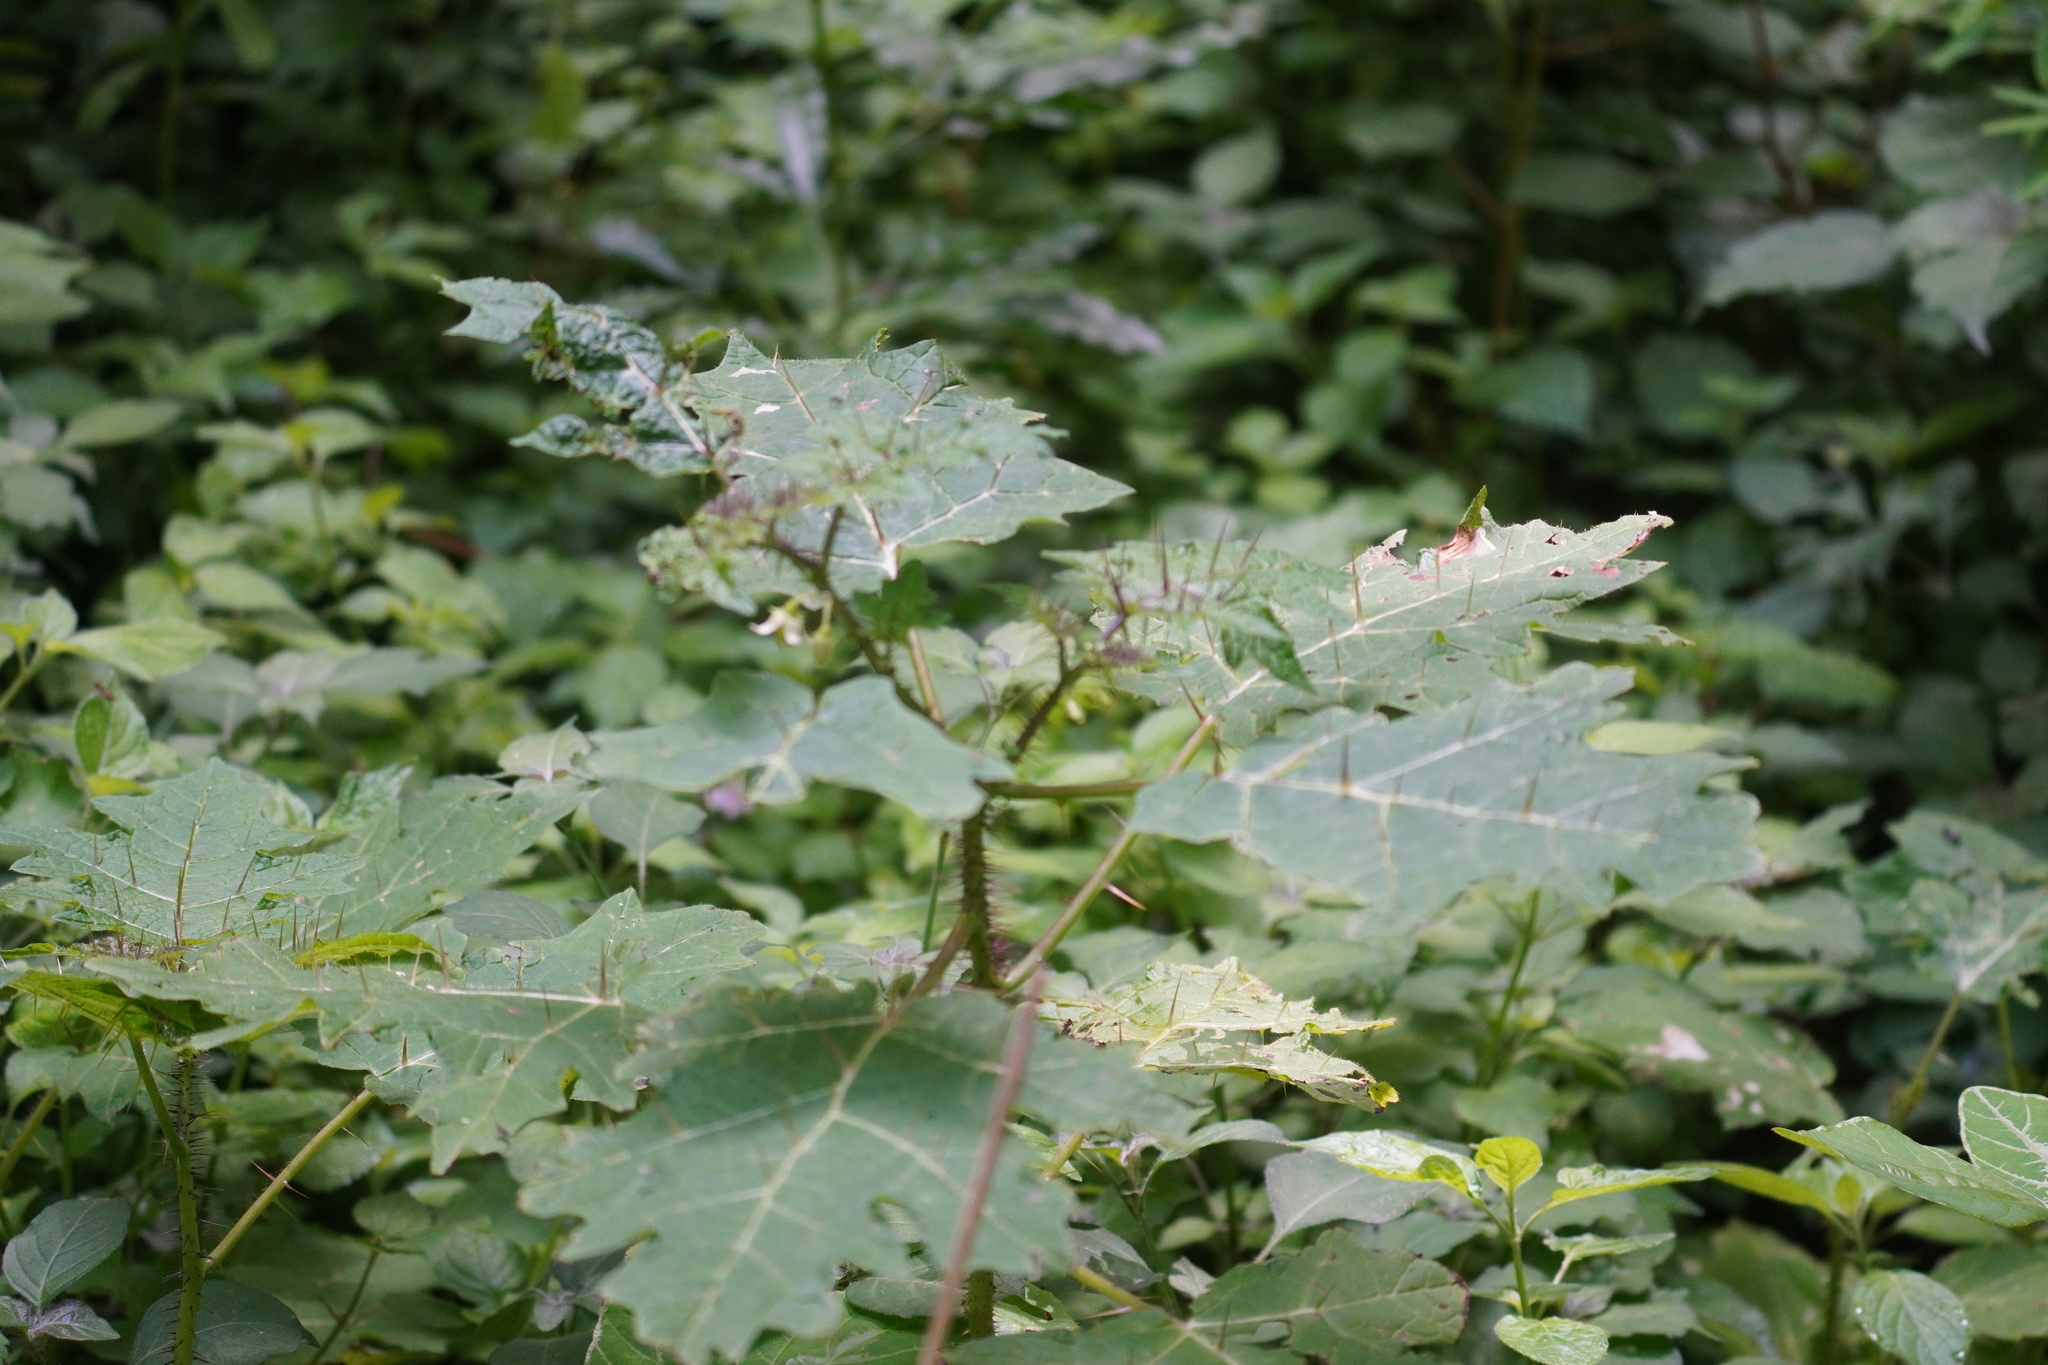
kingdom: Plantae
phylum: Tracheophyta
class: Magnoliopsida
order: Solanales
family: Solanaceae
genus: Solanum
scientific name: Solanum aculeatissimum
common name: Dutch eggplant
